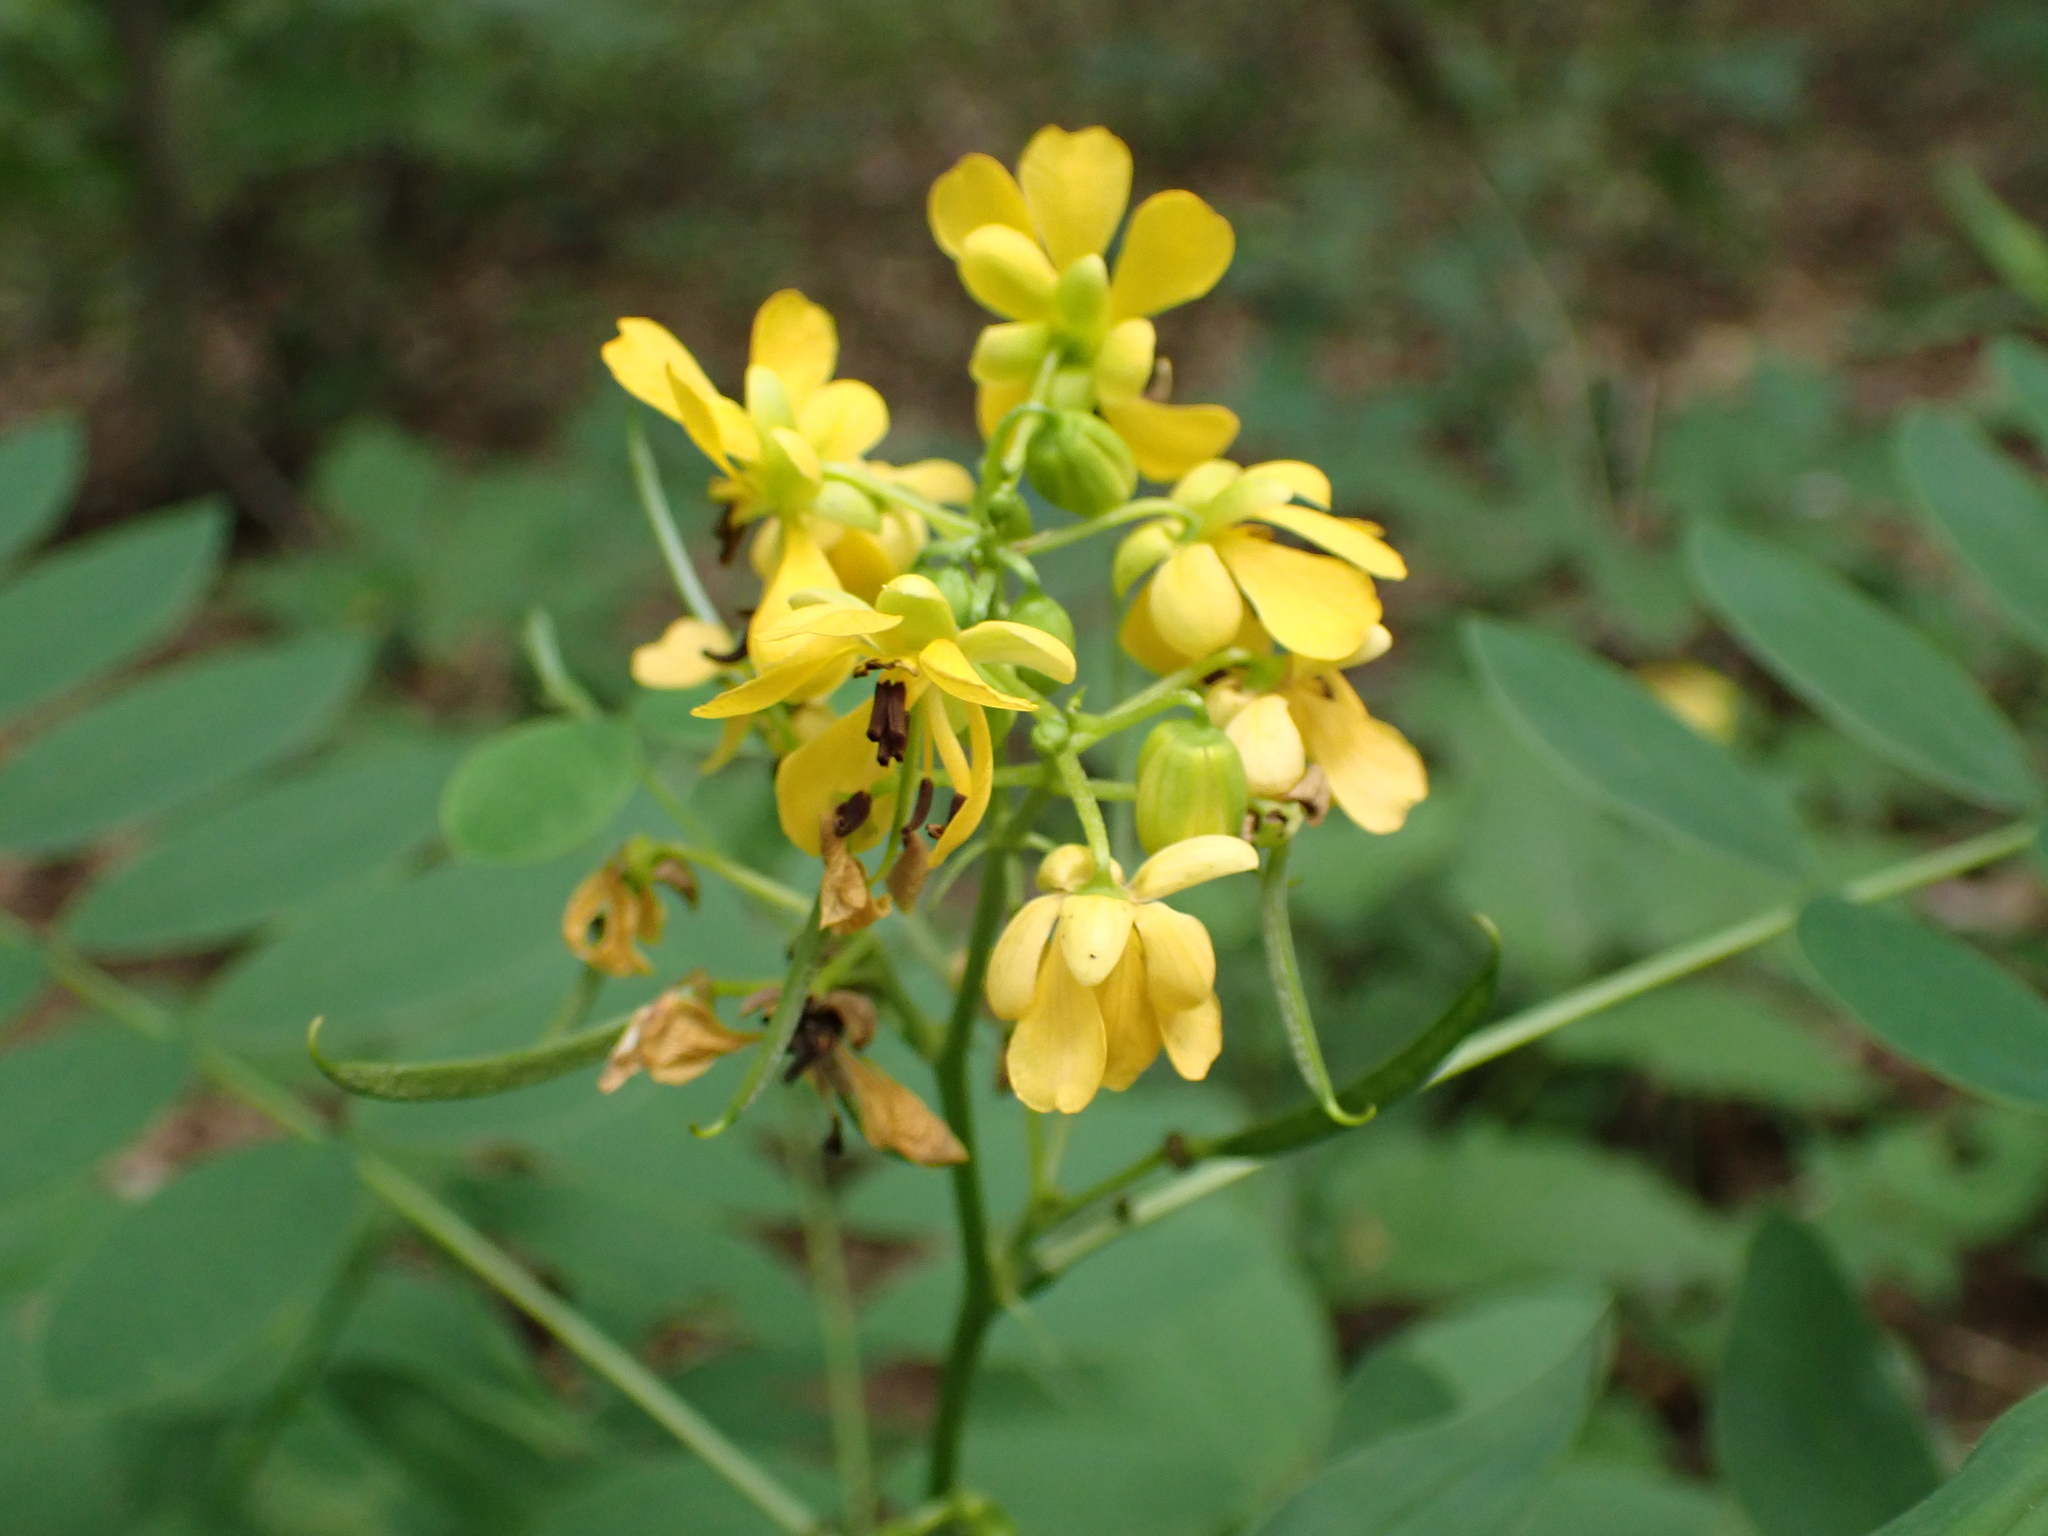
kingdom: Plantae
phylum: Tracheophyta
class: Magnoliopsida
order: Fabales
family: Fabaceae
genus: Senna
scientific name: Senna marilandica
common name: American senna
